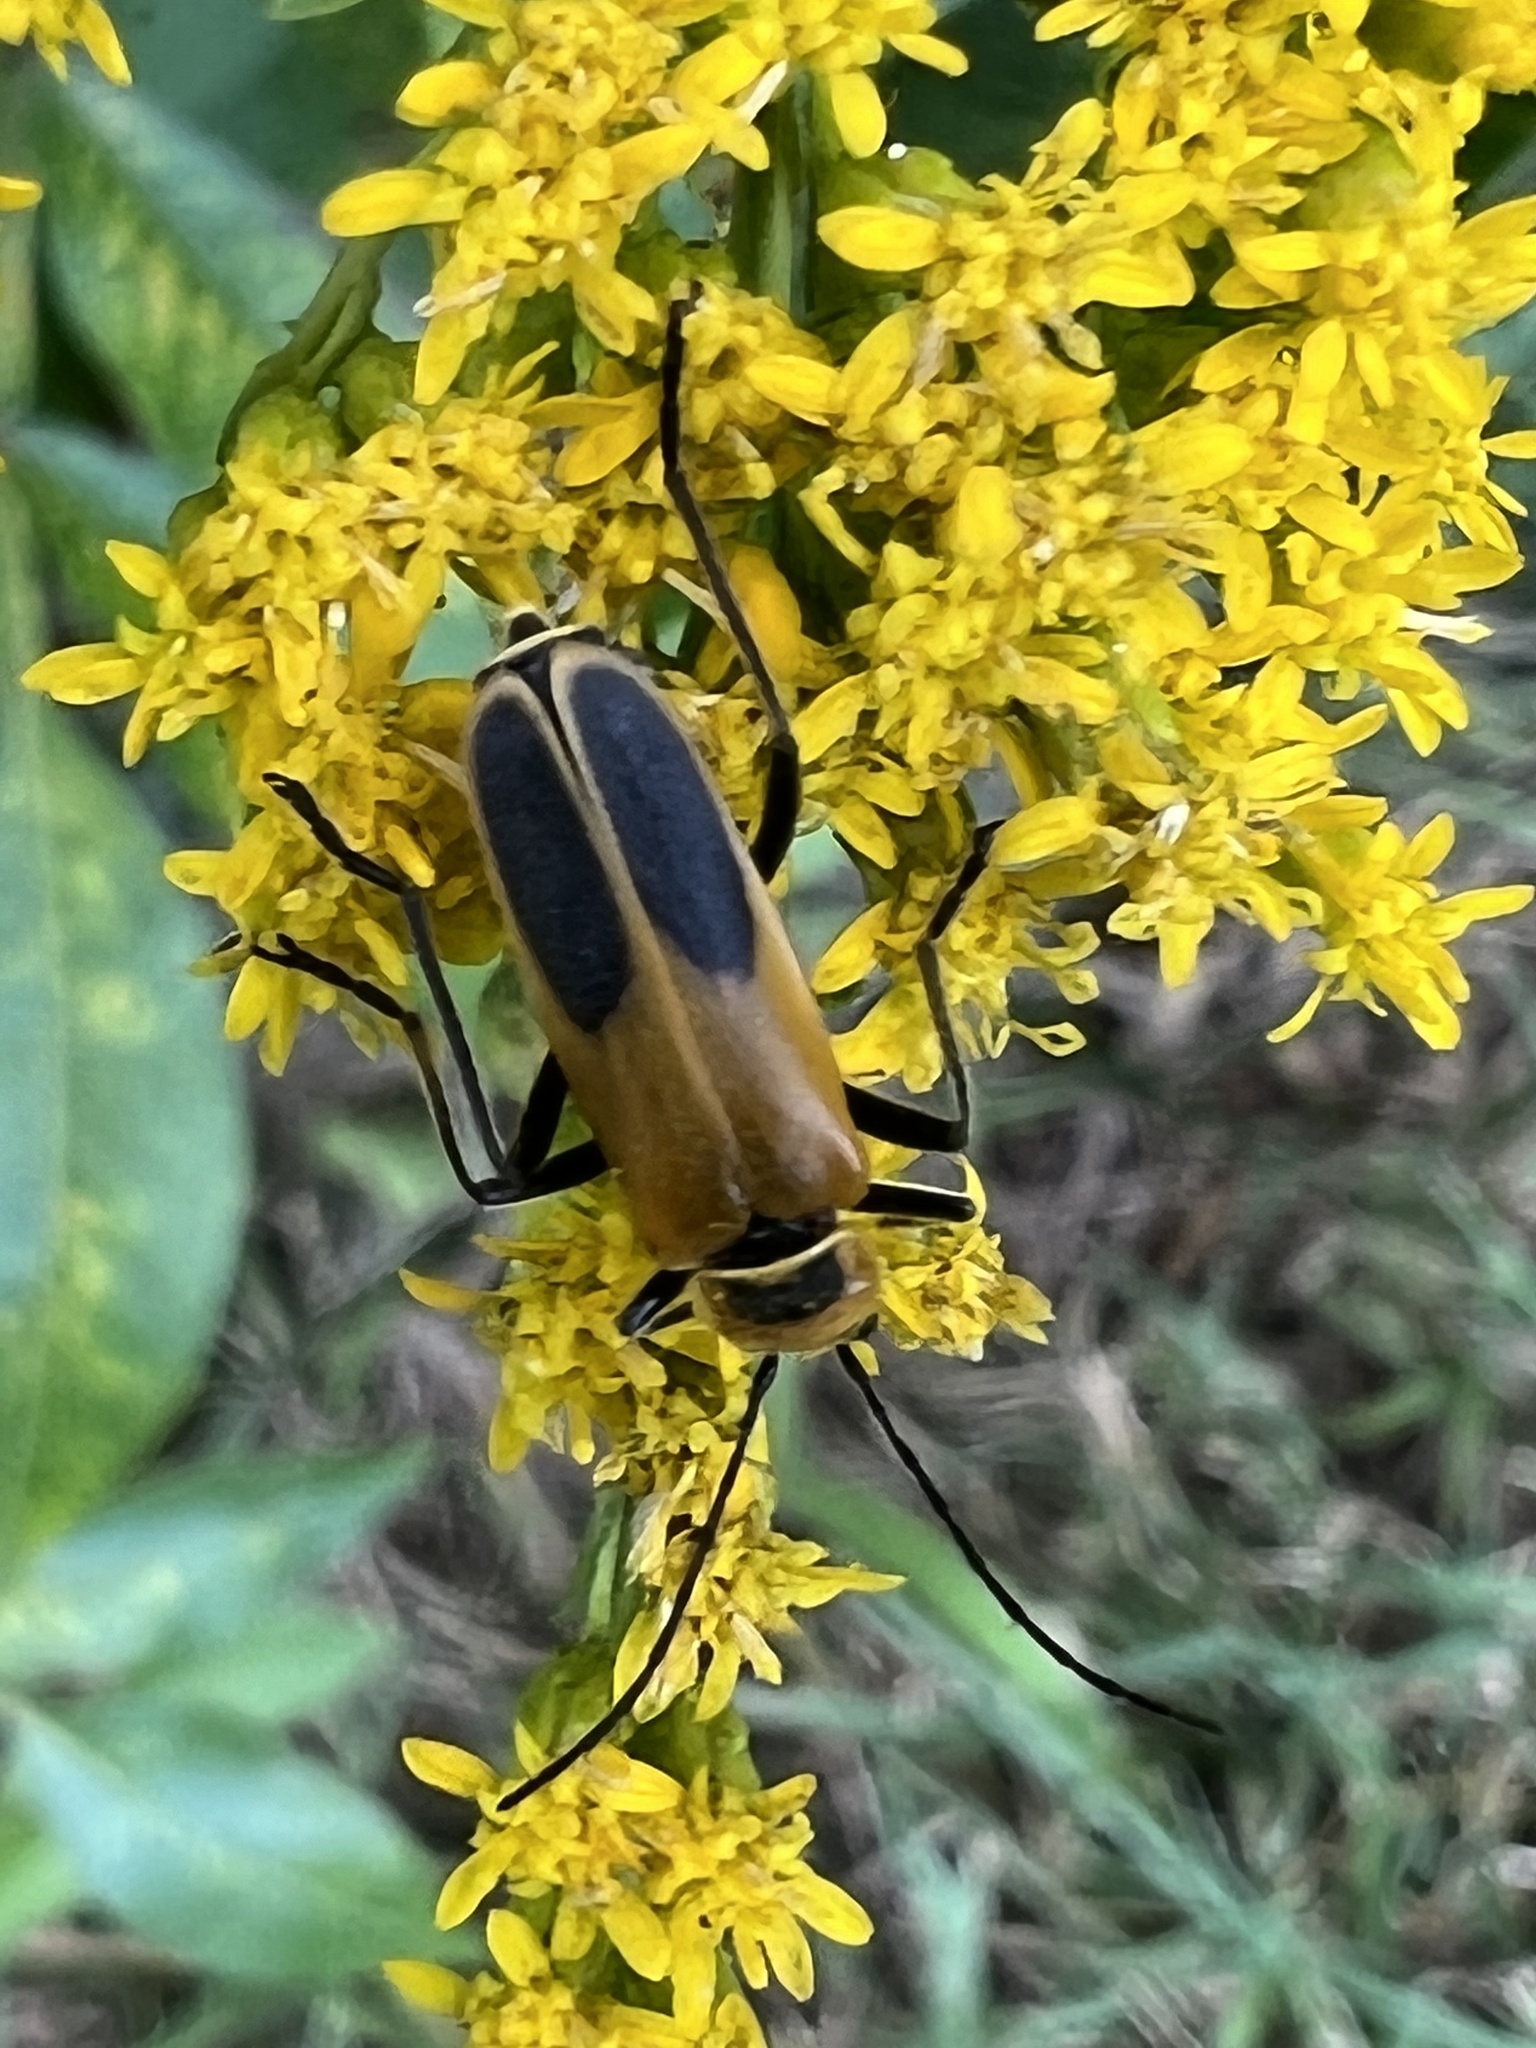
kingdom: Animalia
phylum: Arthropoda
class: Insecta
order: Coleoptera
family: Cantharidae
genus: Chauliognathus
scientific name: Chauliognathus pensylvanicus
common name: Goldenrod soldier beetle
